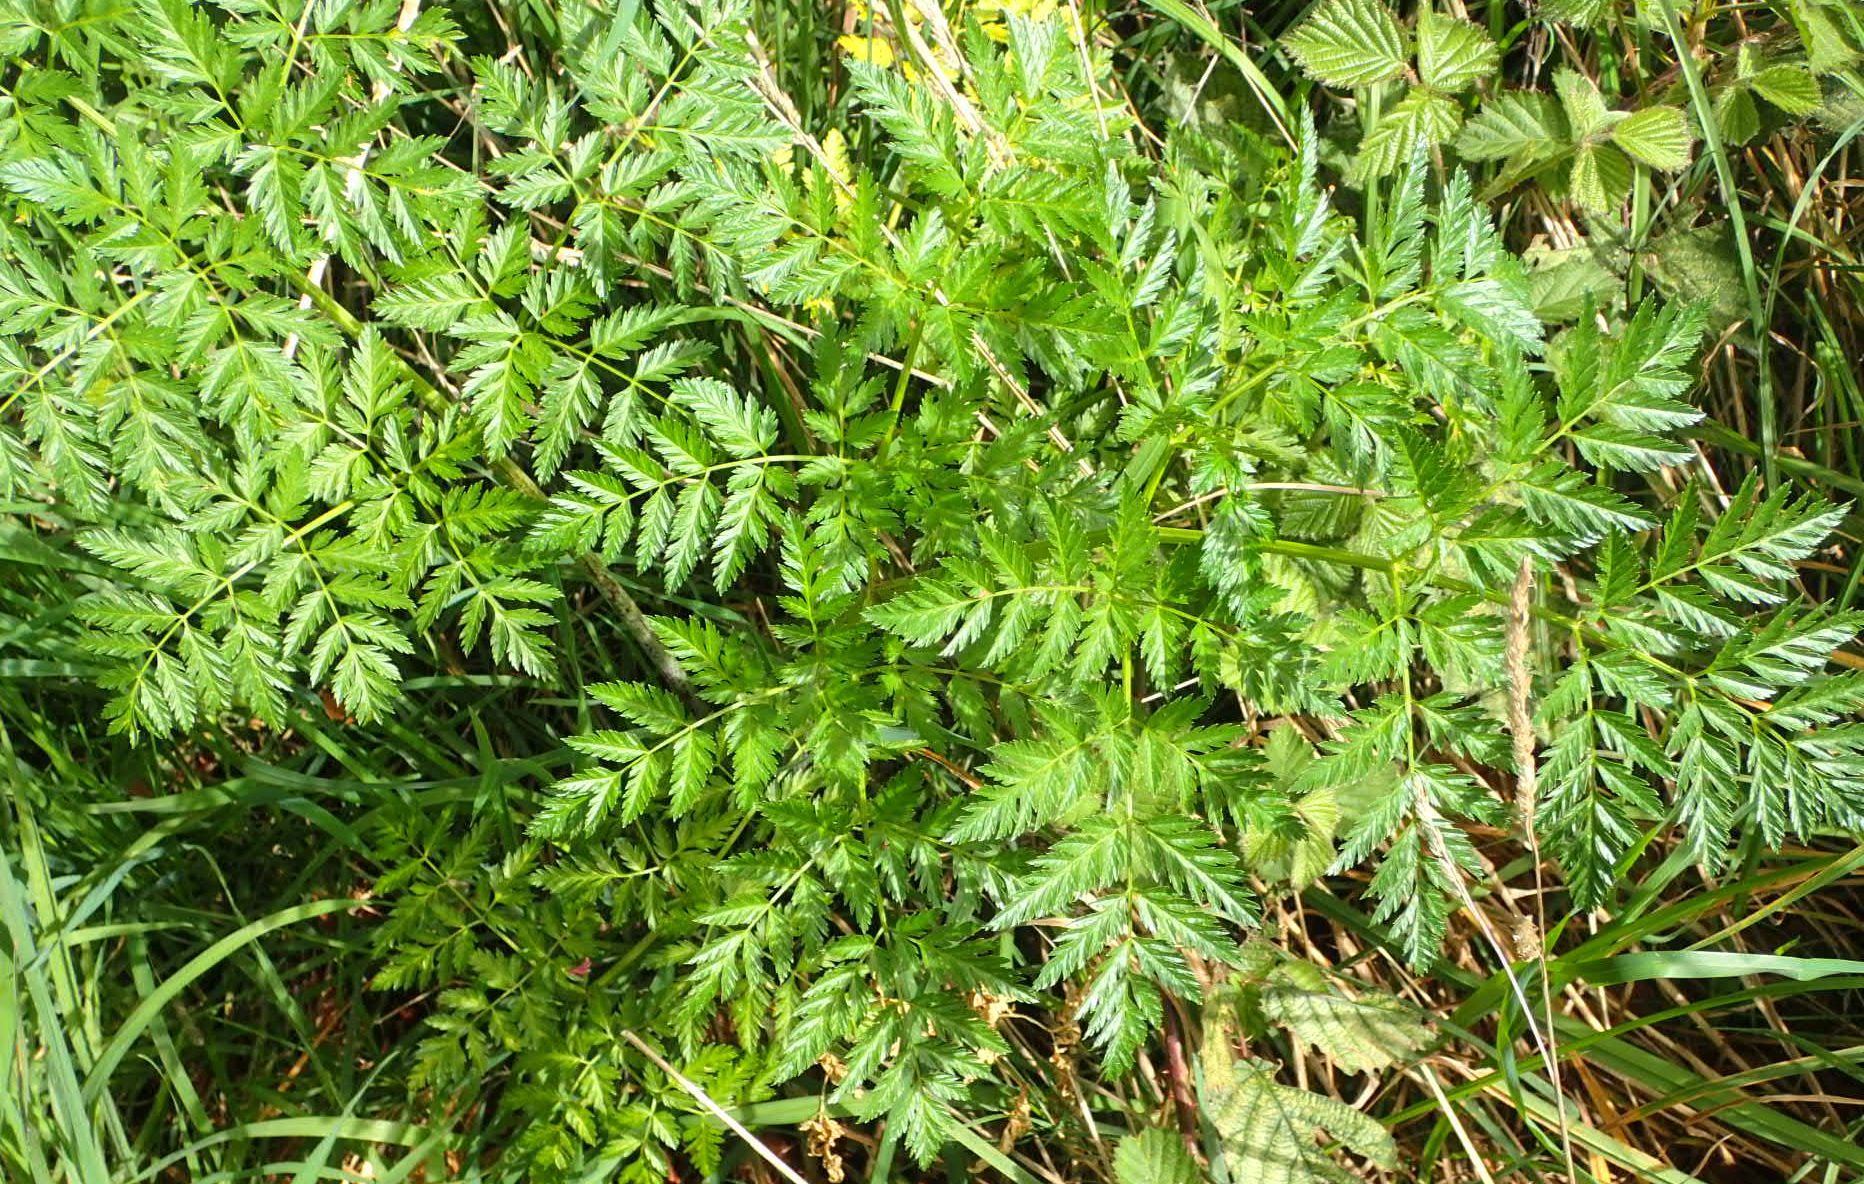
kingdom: Plantae
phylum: Tracheophyta
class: Magnoliopsida
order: Apiales
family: Apiaceae
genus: Conium
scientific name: Conium maculatum
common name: Hemlock
